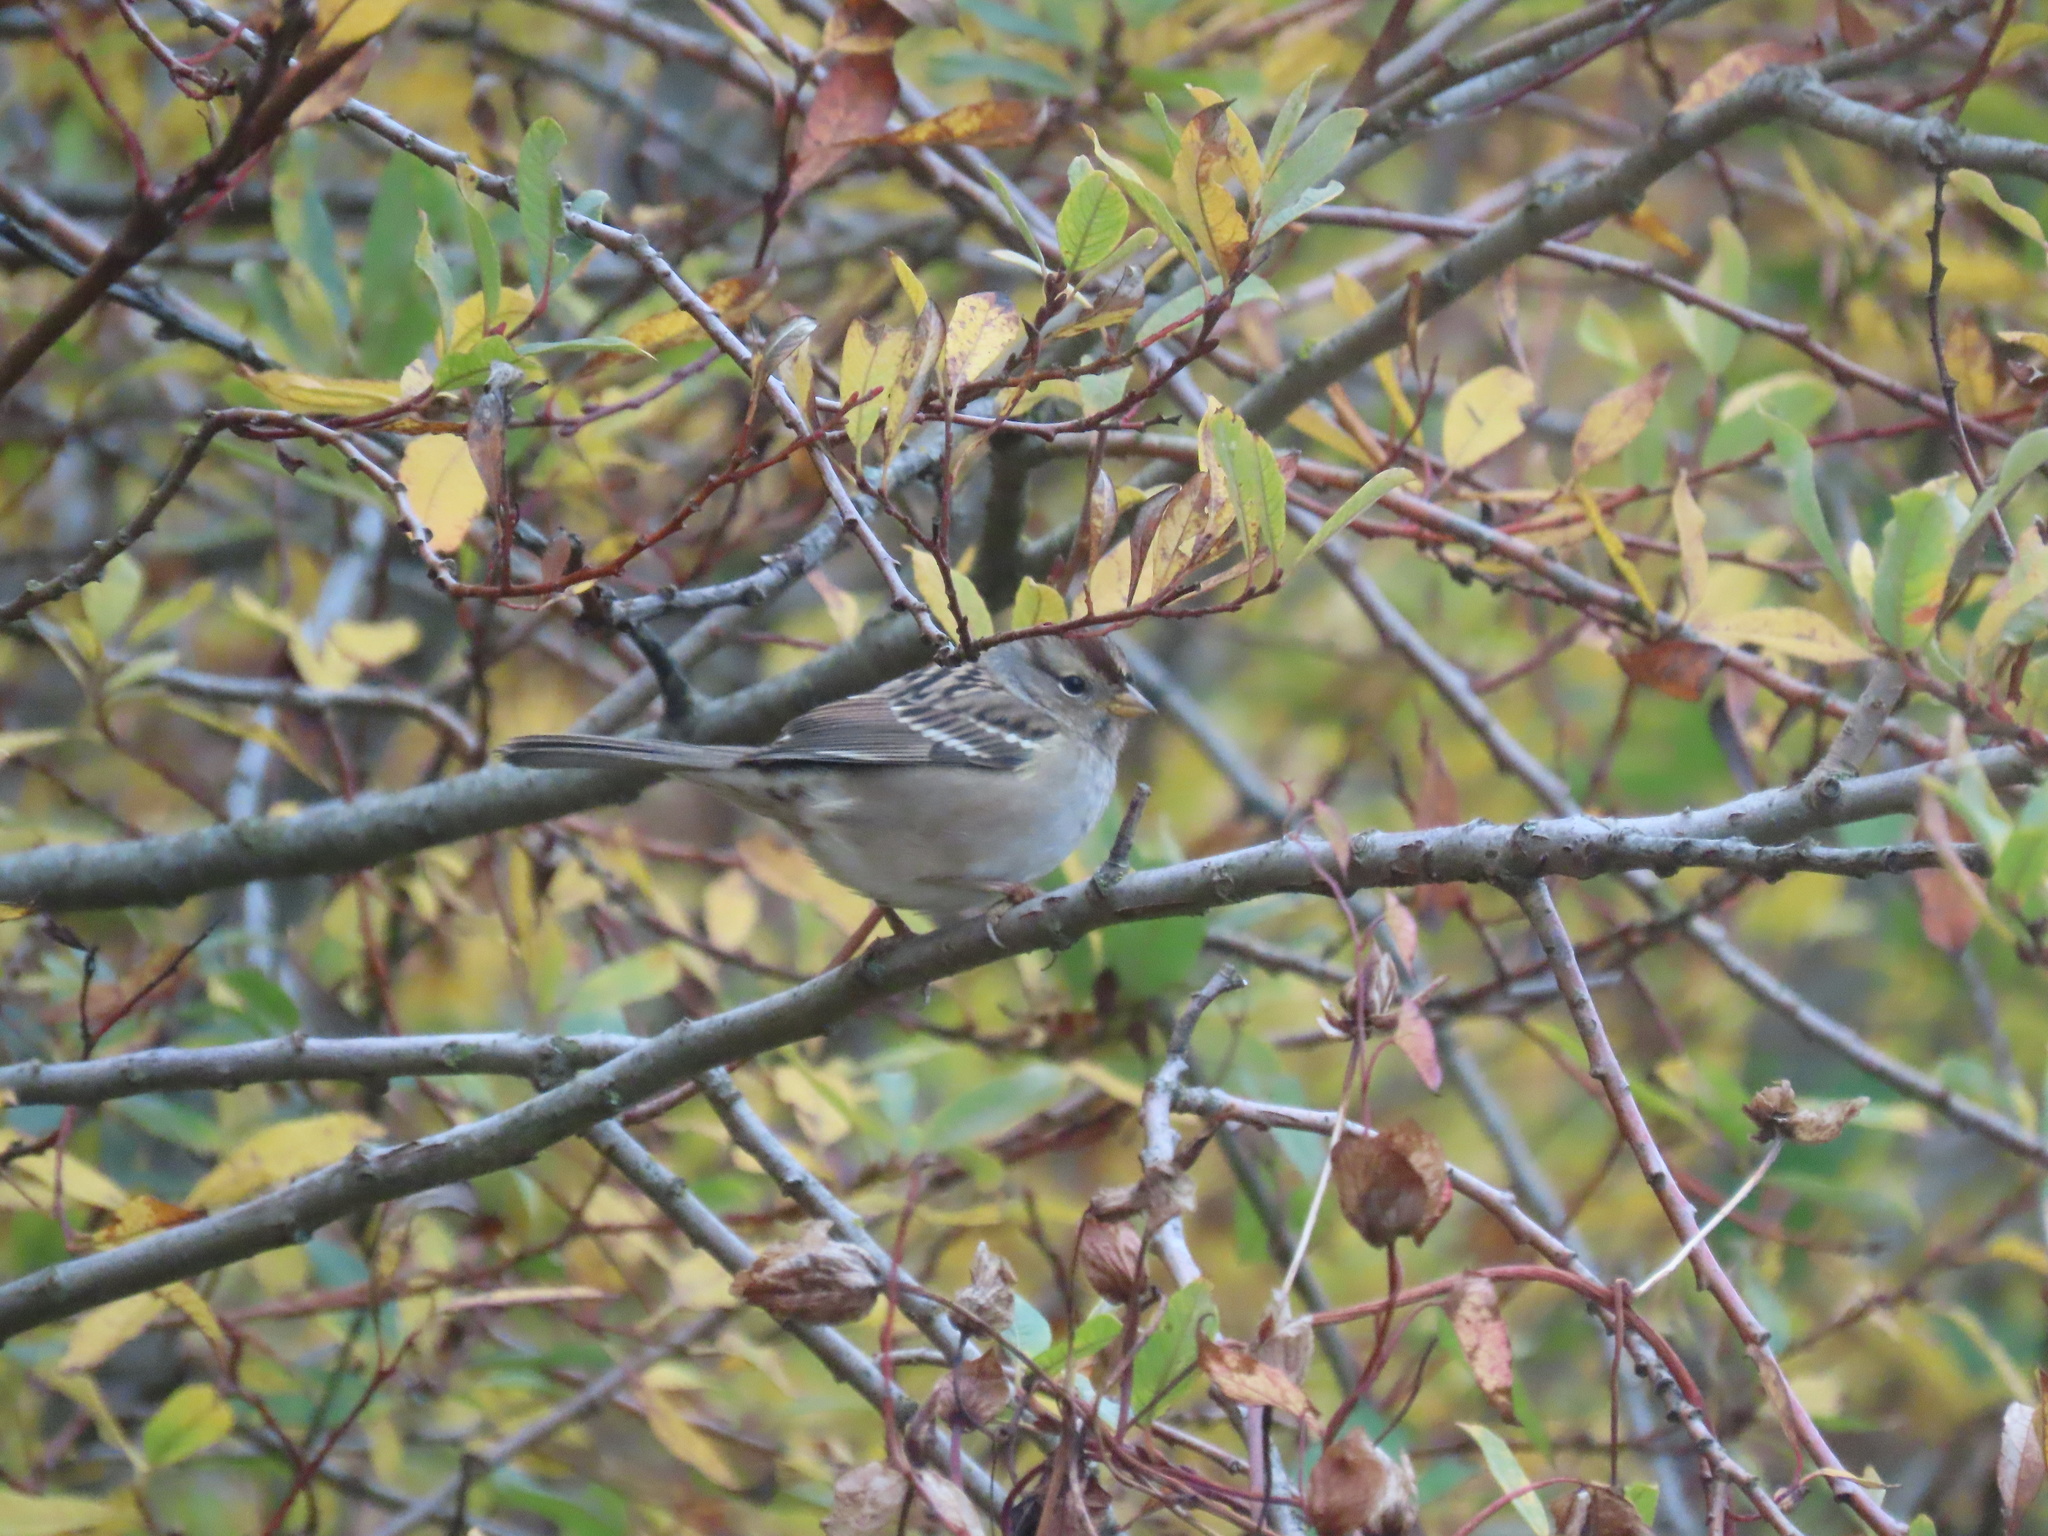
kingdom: Animalia
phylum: Chordata
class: Aves
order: Passeriformes
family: Passerellidae
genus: Zonotrichia
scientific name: Zonotrichia leucophrys
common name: White-crowned sparrow
